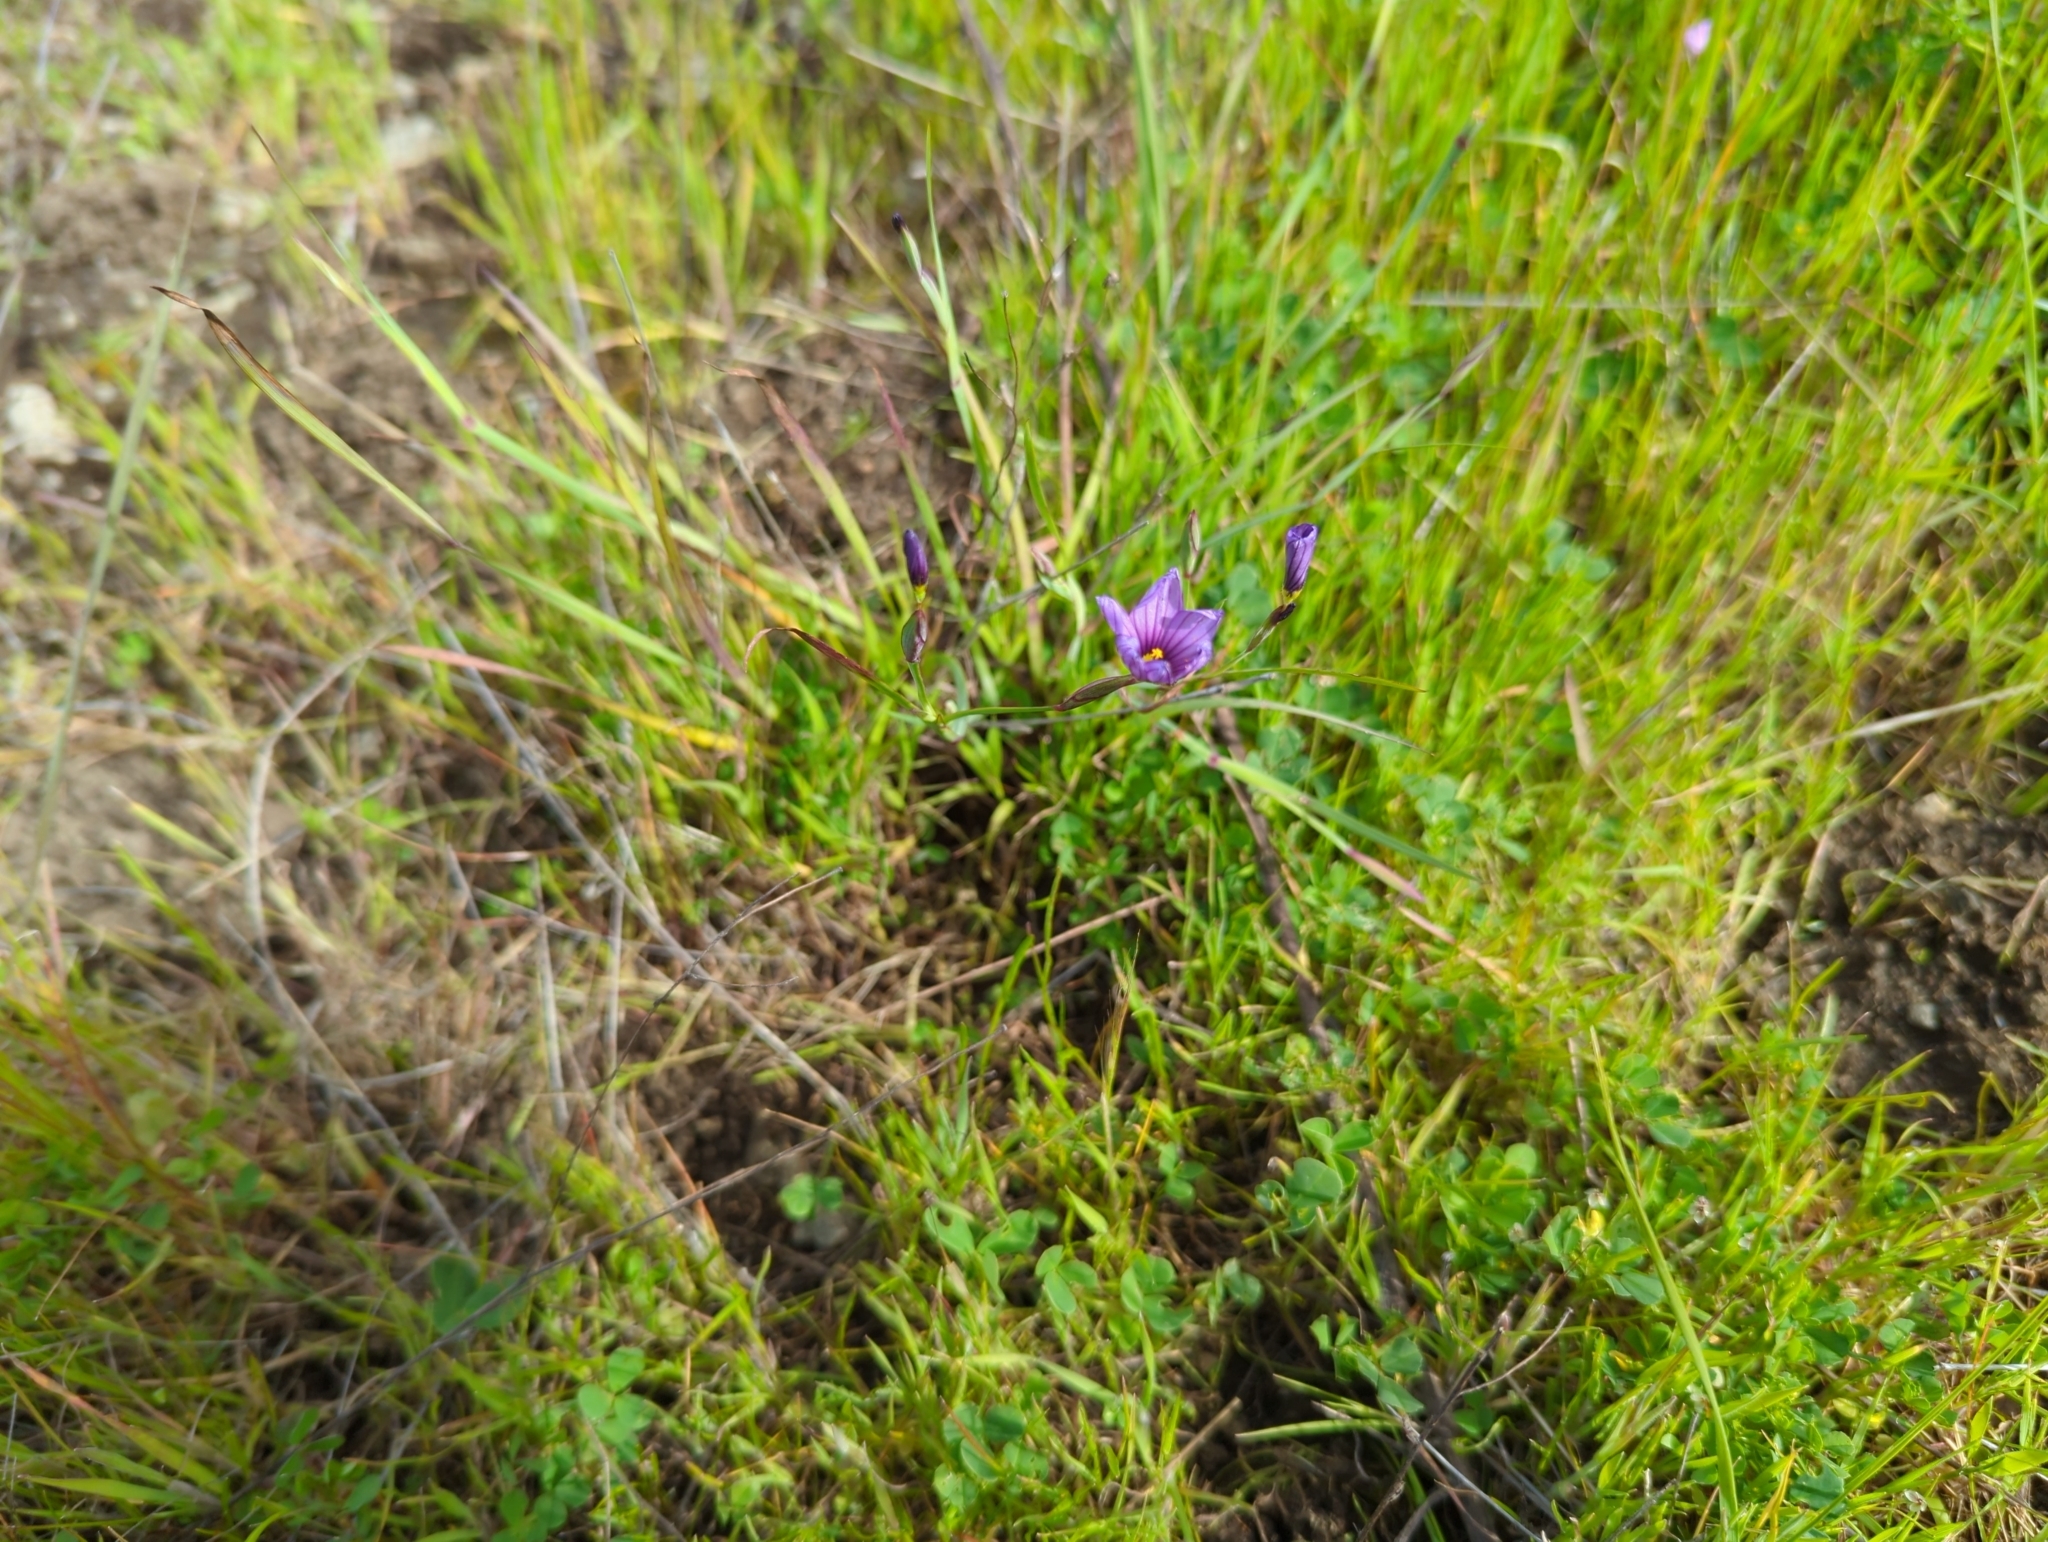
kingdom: Plantae
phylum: Tracheophyta
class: Liliopsida
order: Asparagales
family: Iridaceae
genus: Sisyrinchium
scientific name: Sisyrinchium bellum
